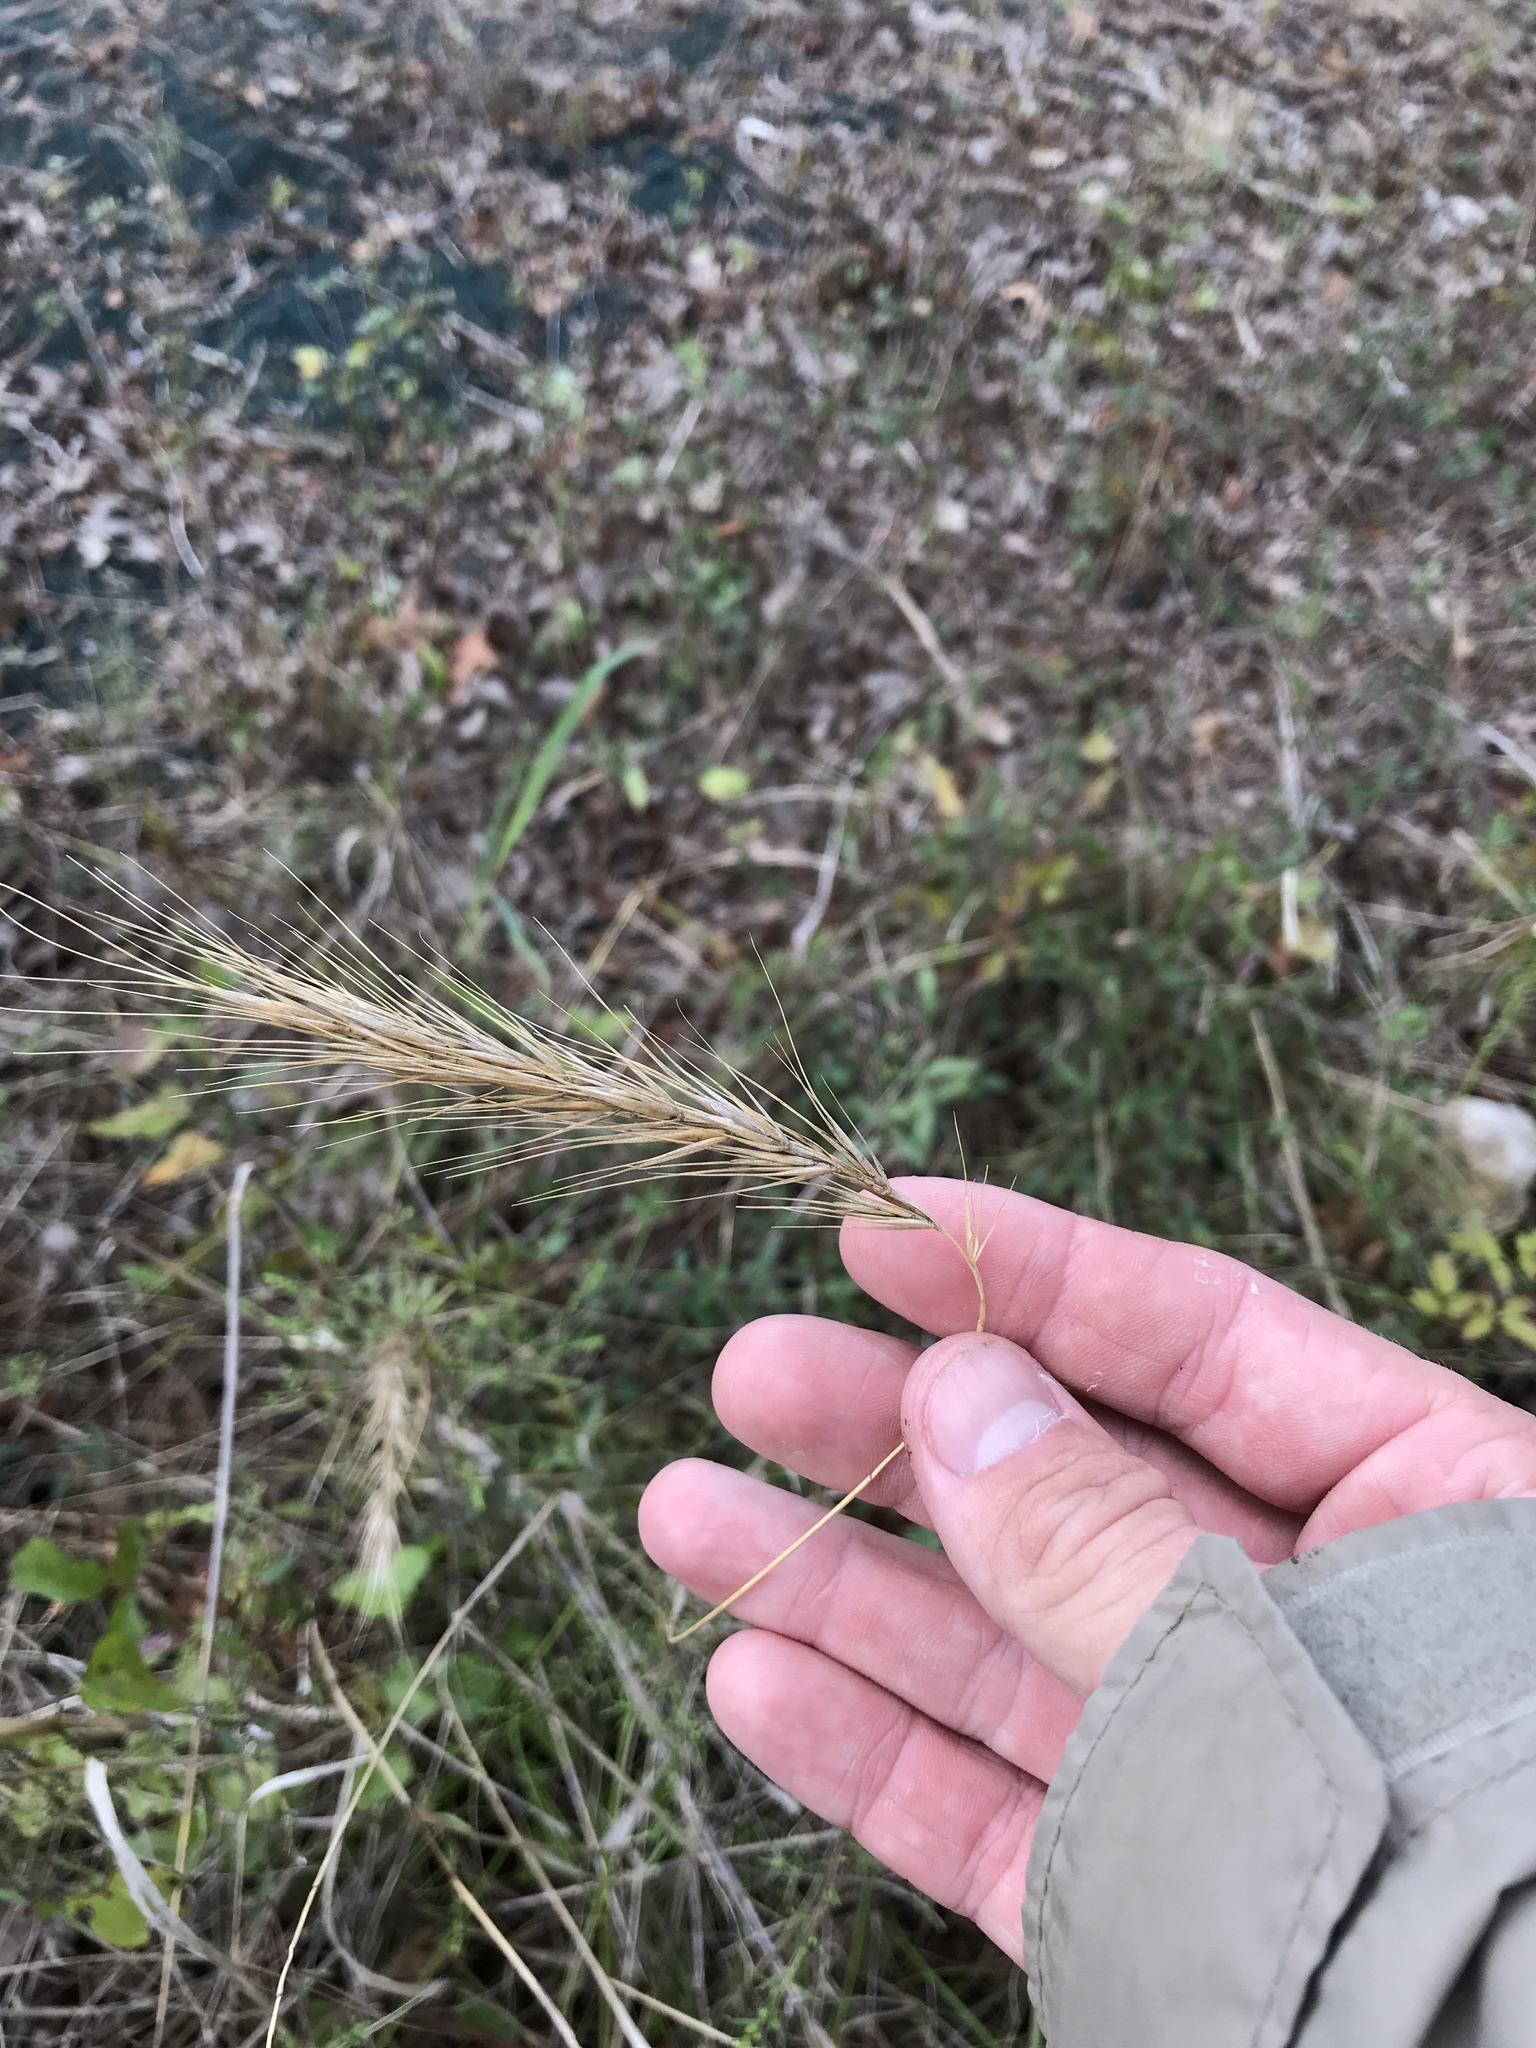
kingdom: Plantae
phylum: Tracheophyta
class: Liliopsida
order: Poales
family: Poaceae
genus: Elymus
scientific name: Elymus canadensis
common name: Canada wild rye
